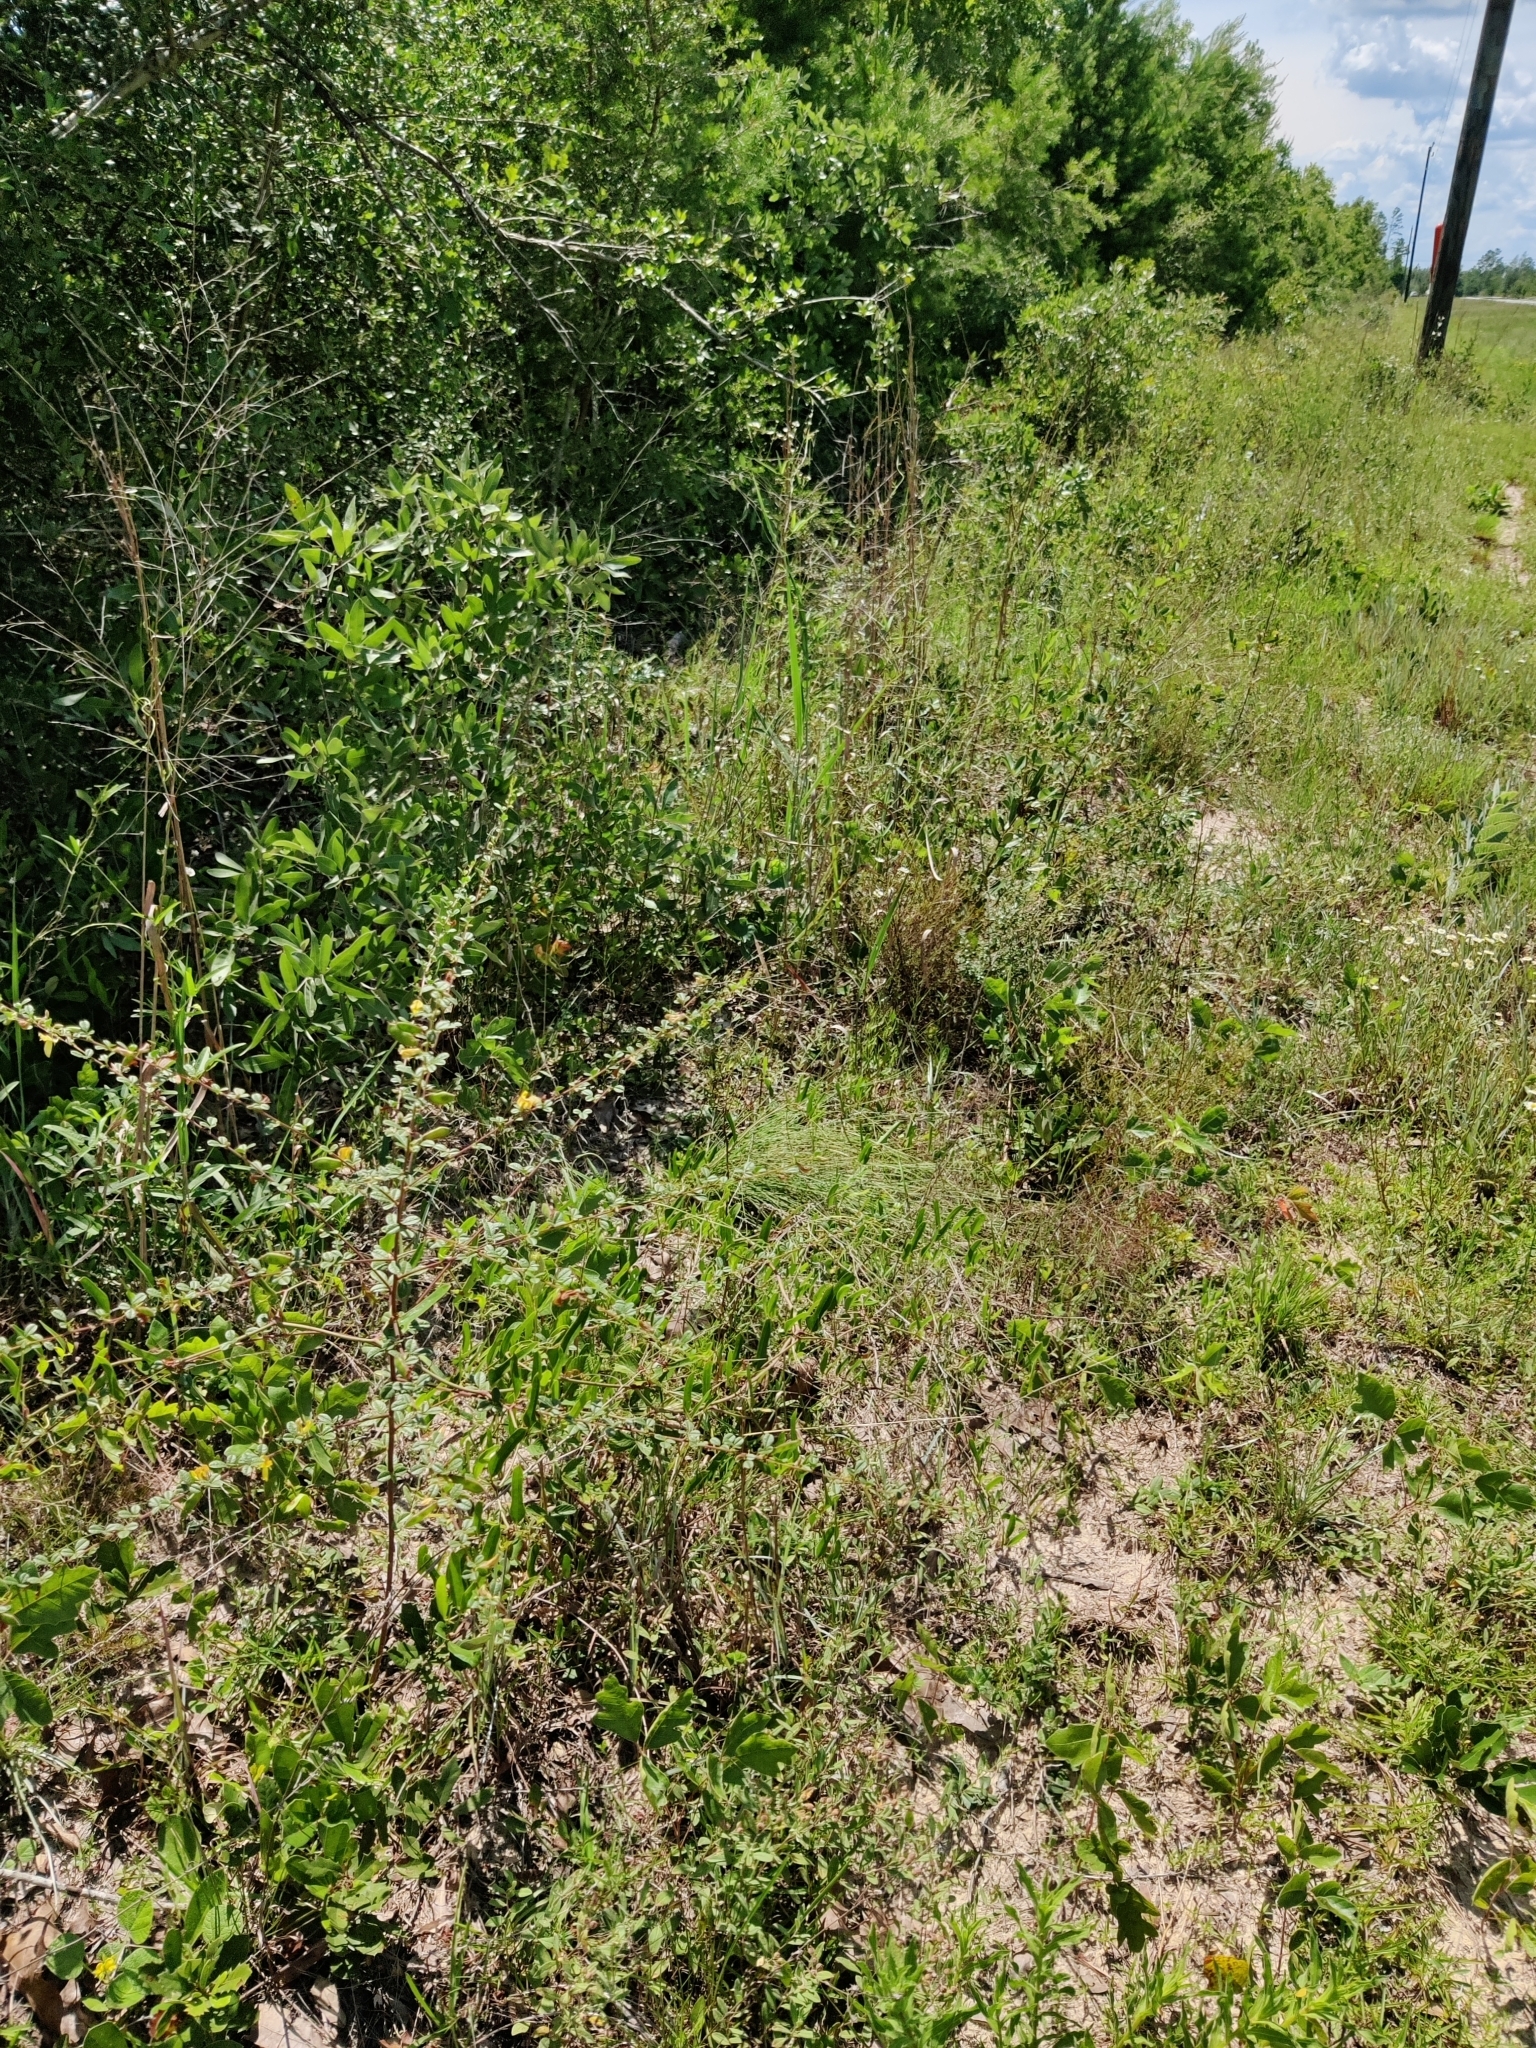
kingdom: Plantae
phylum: Tracheophyta
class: Magnoliopsida
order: Fabales
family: Fabaceae
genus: Rhynchosia
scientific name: Rhynchosia cytisoides
